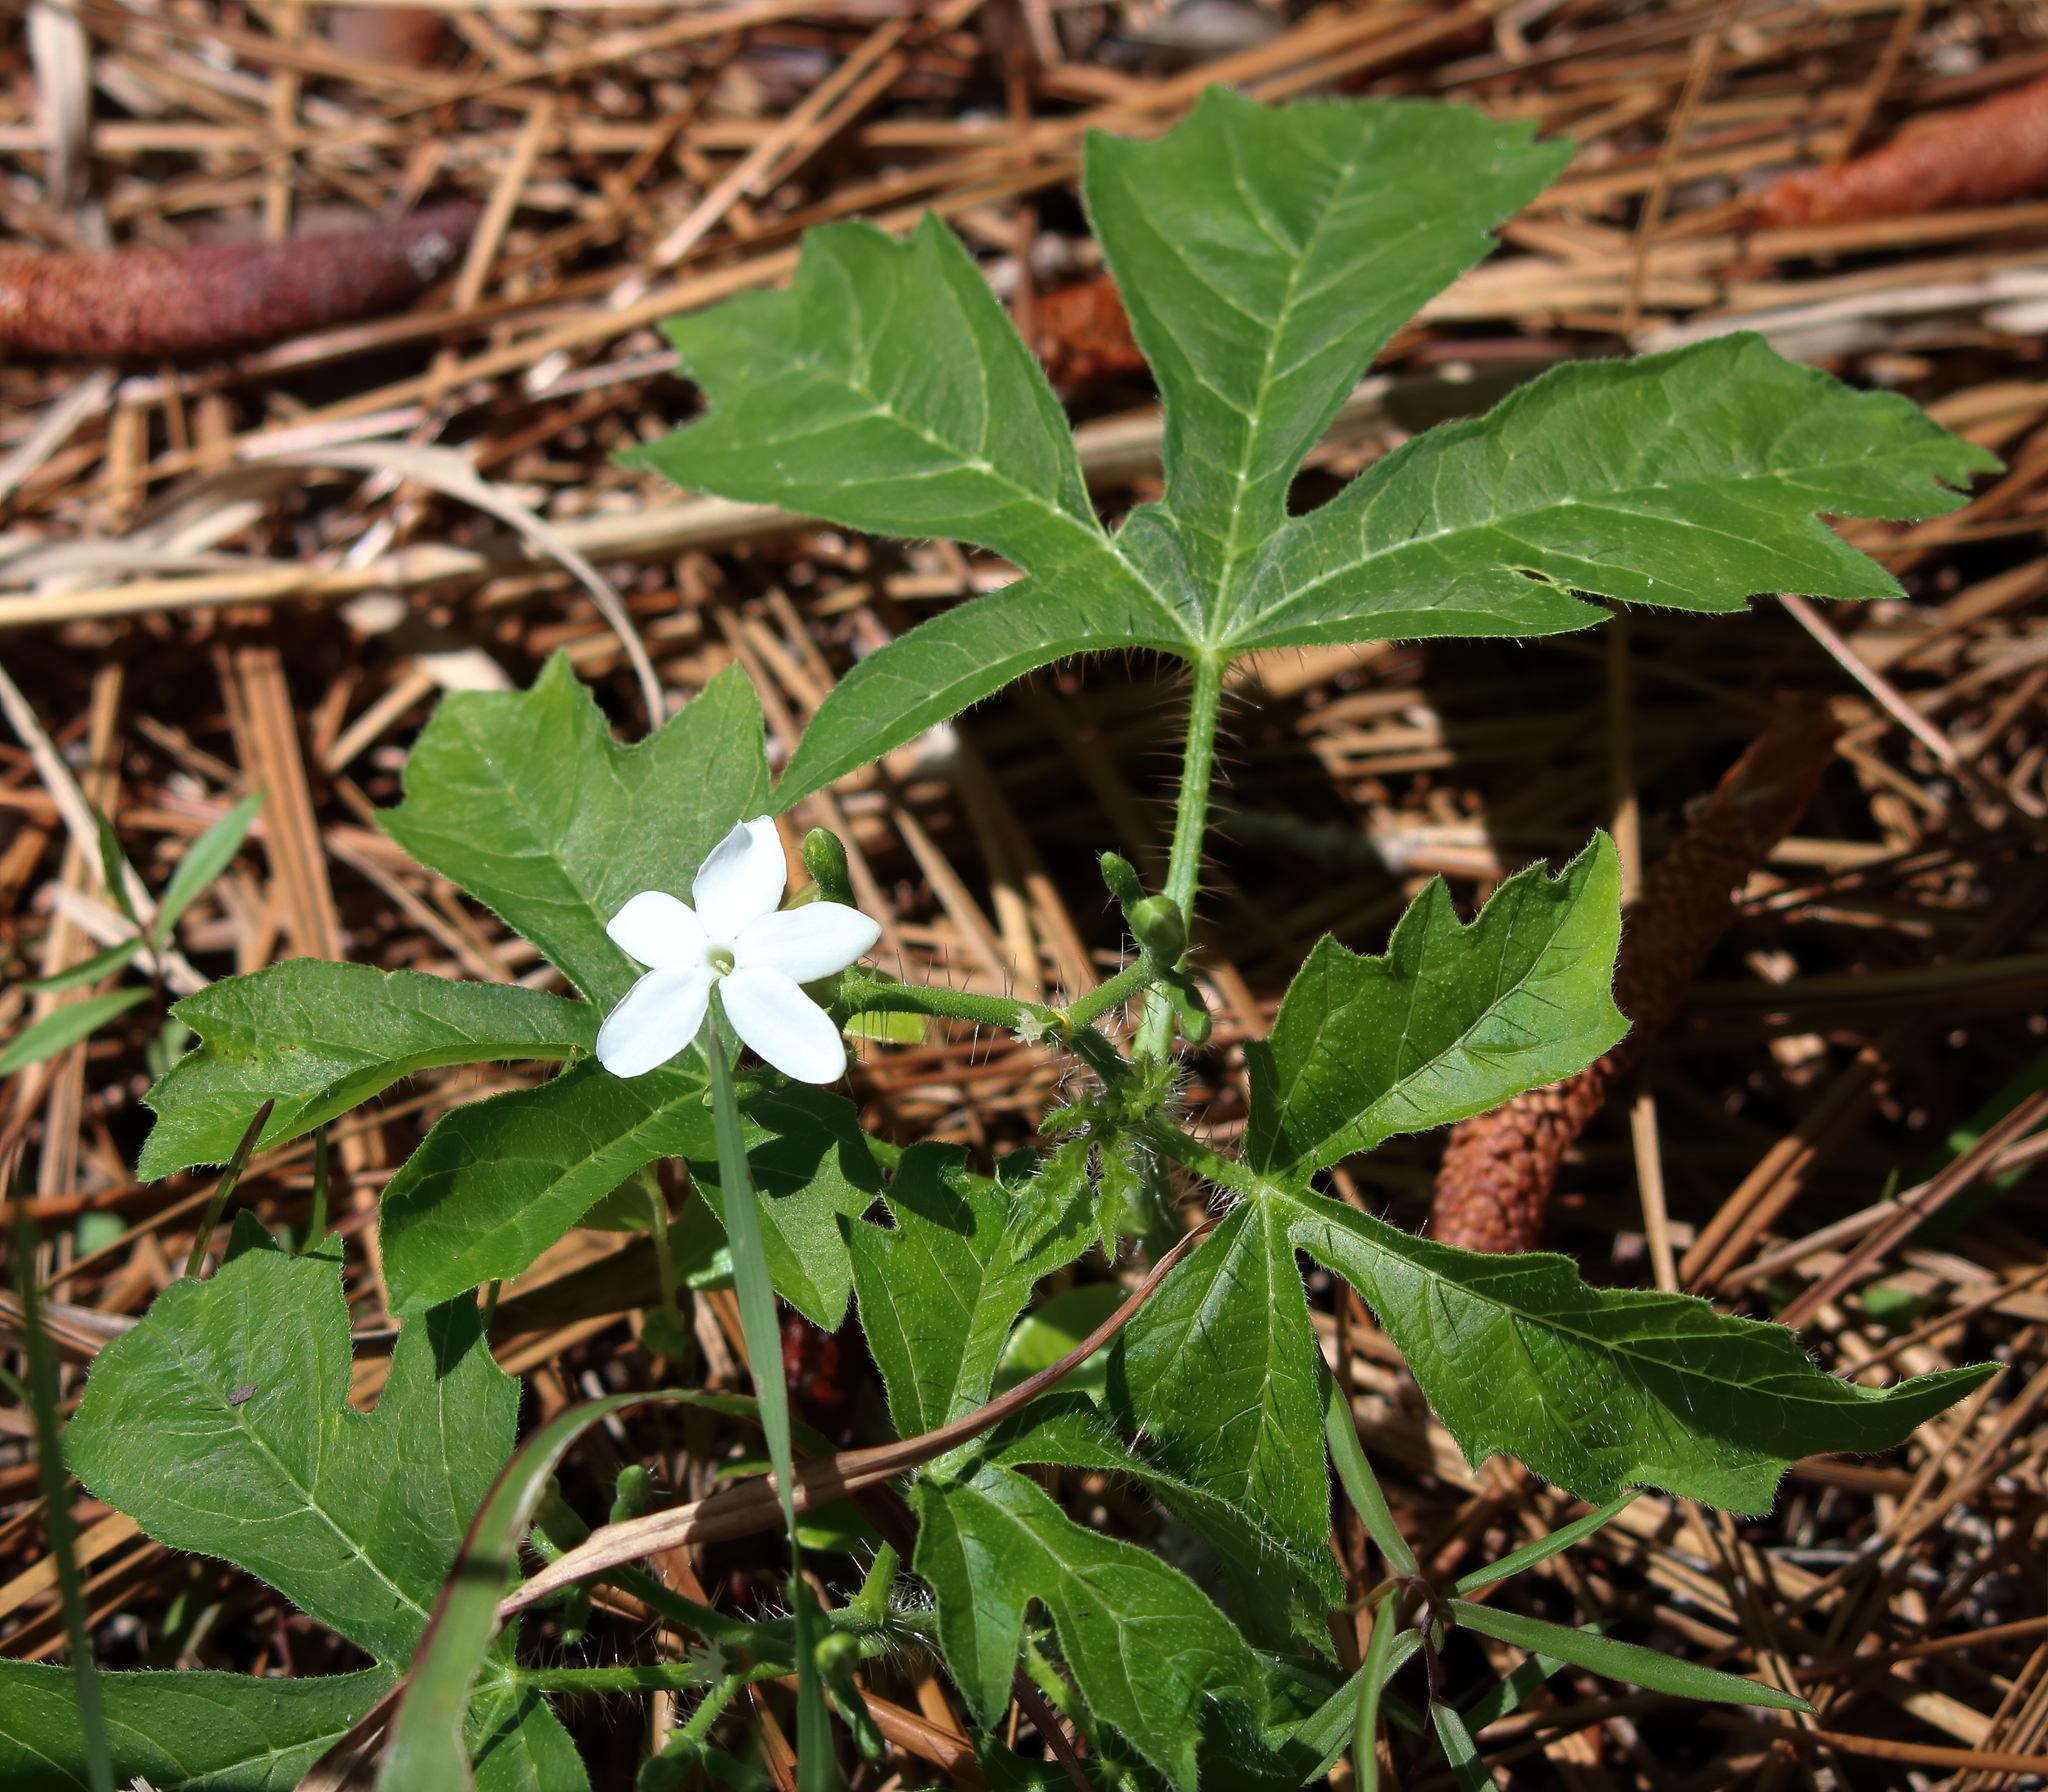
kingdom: Plantae
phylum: Tracheophyta
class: Magnoliopsida
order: Malpighiales
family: Euphorbiaceae
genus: Cnidoscolus
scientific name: Cnidoscolus stimulosus
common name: Bull-nettle
